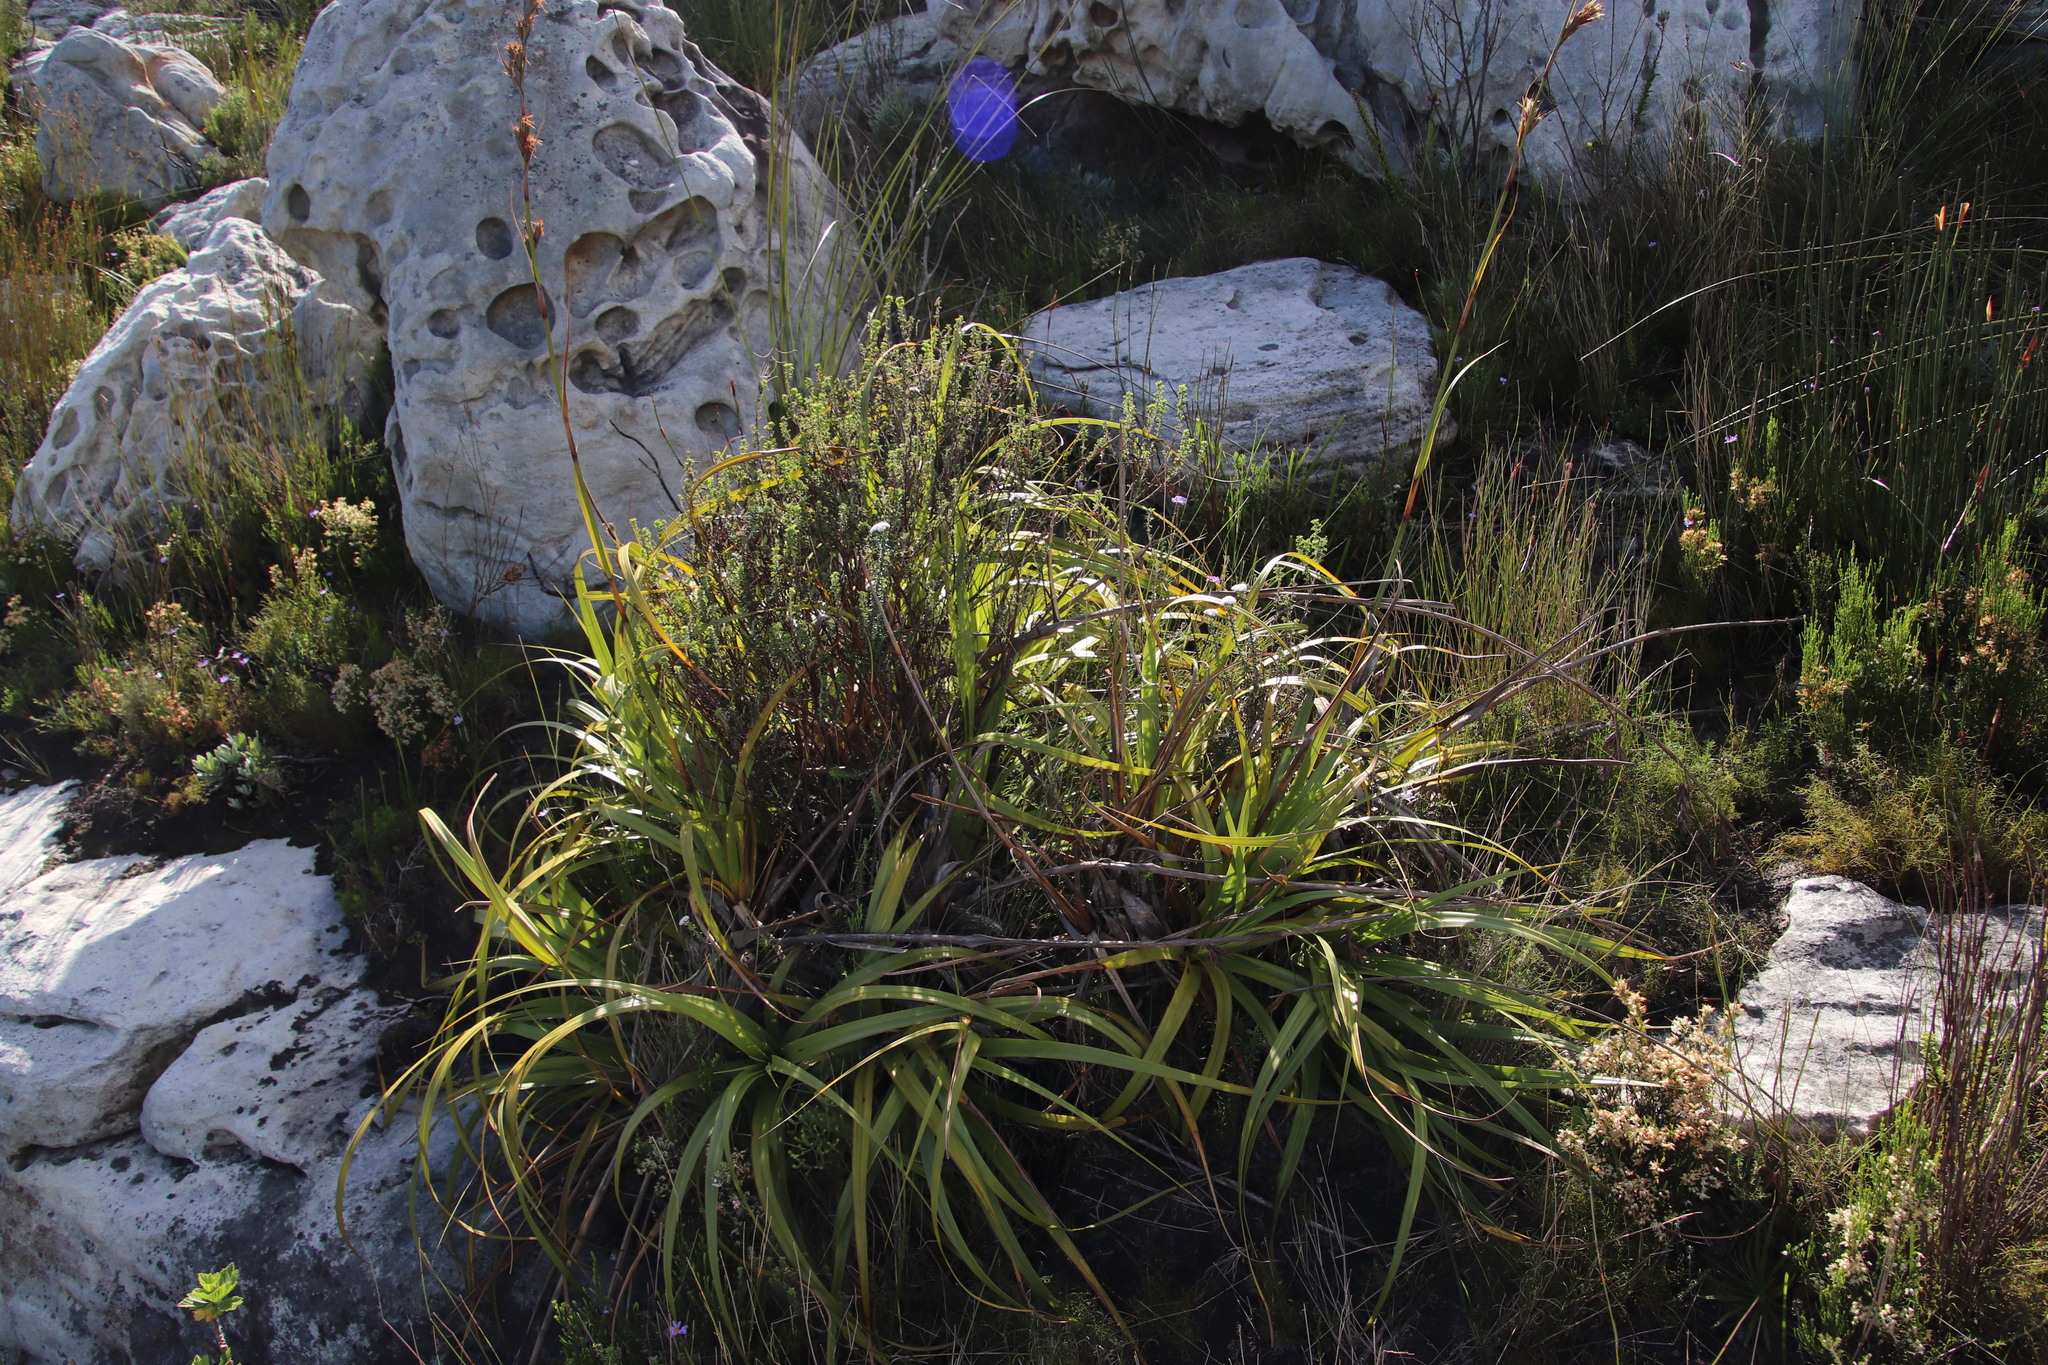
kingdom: Plantae
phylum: Tracheophyta
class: Liliopsida
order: Poales
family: Cyperaceae
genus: Tetraria
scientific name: Tetraria thermalis
